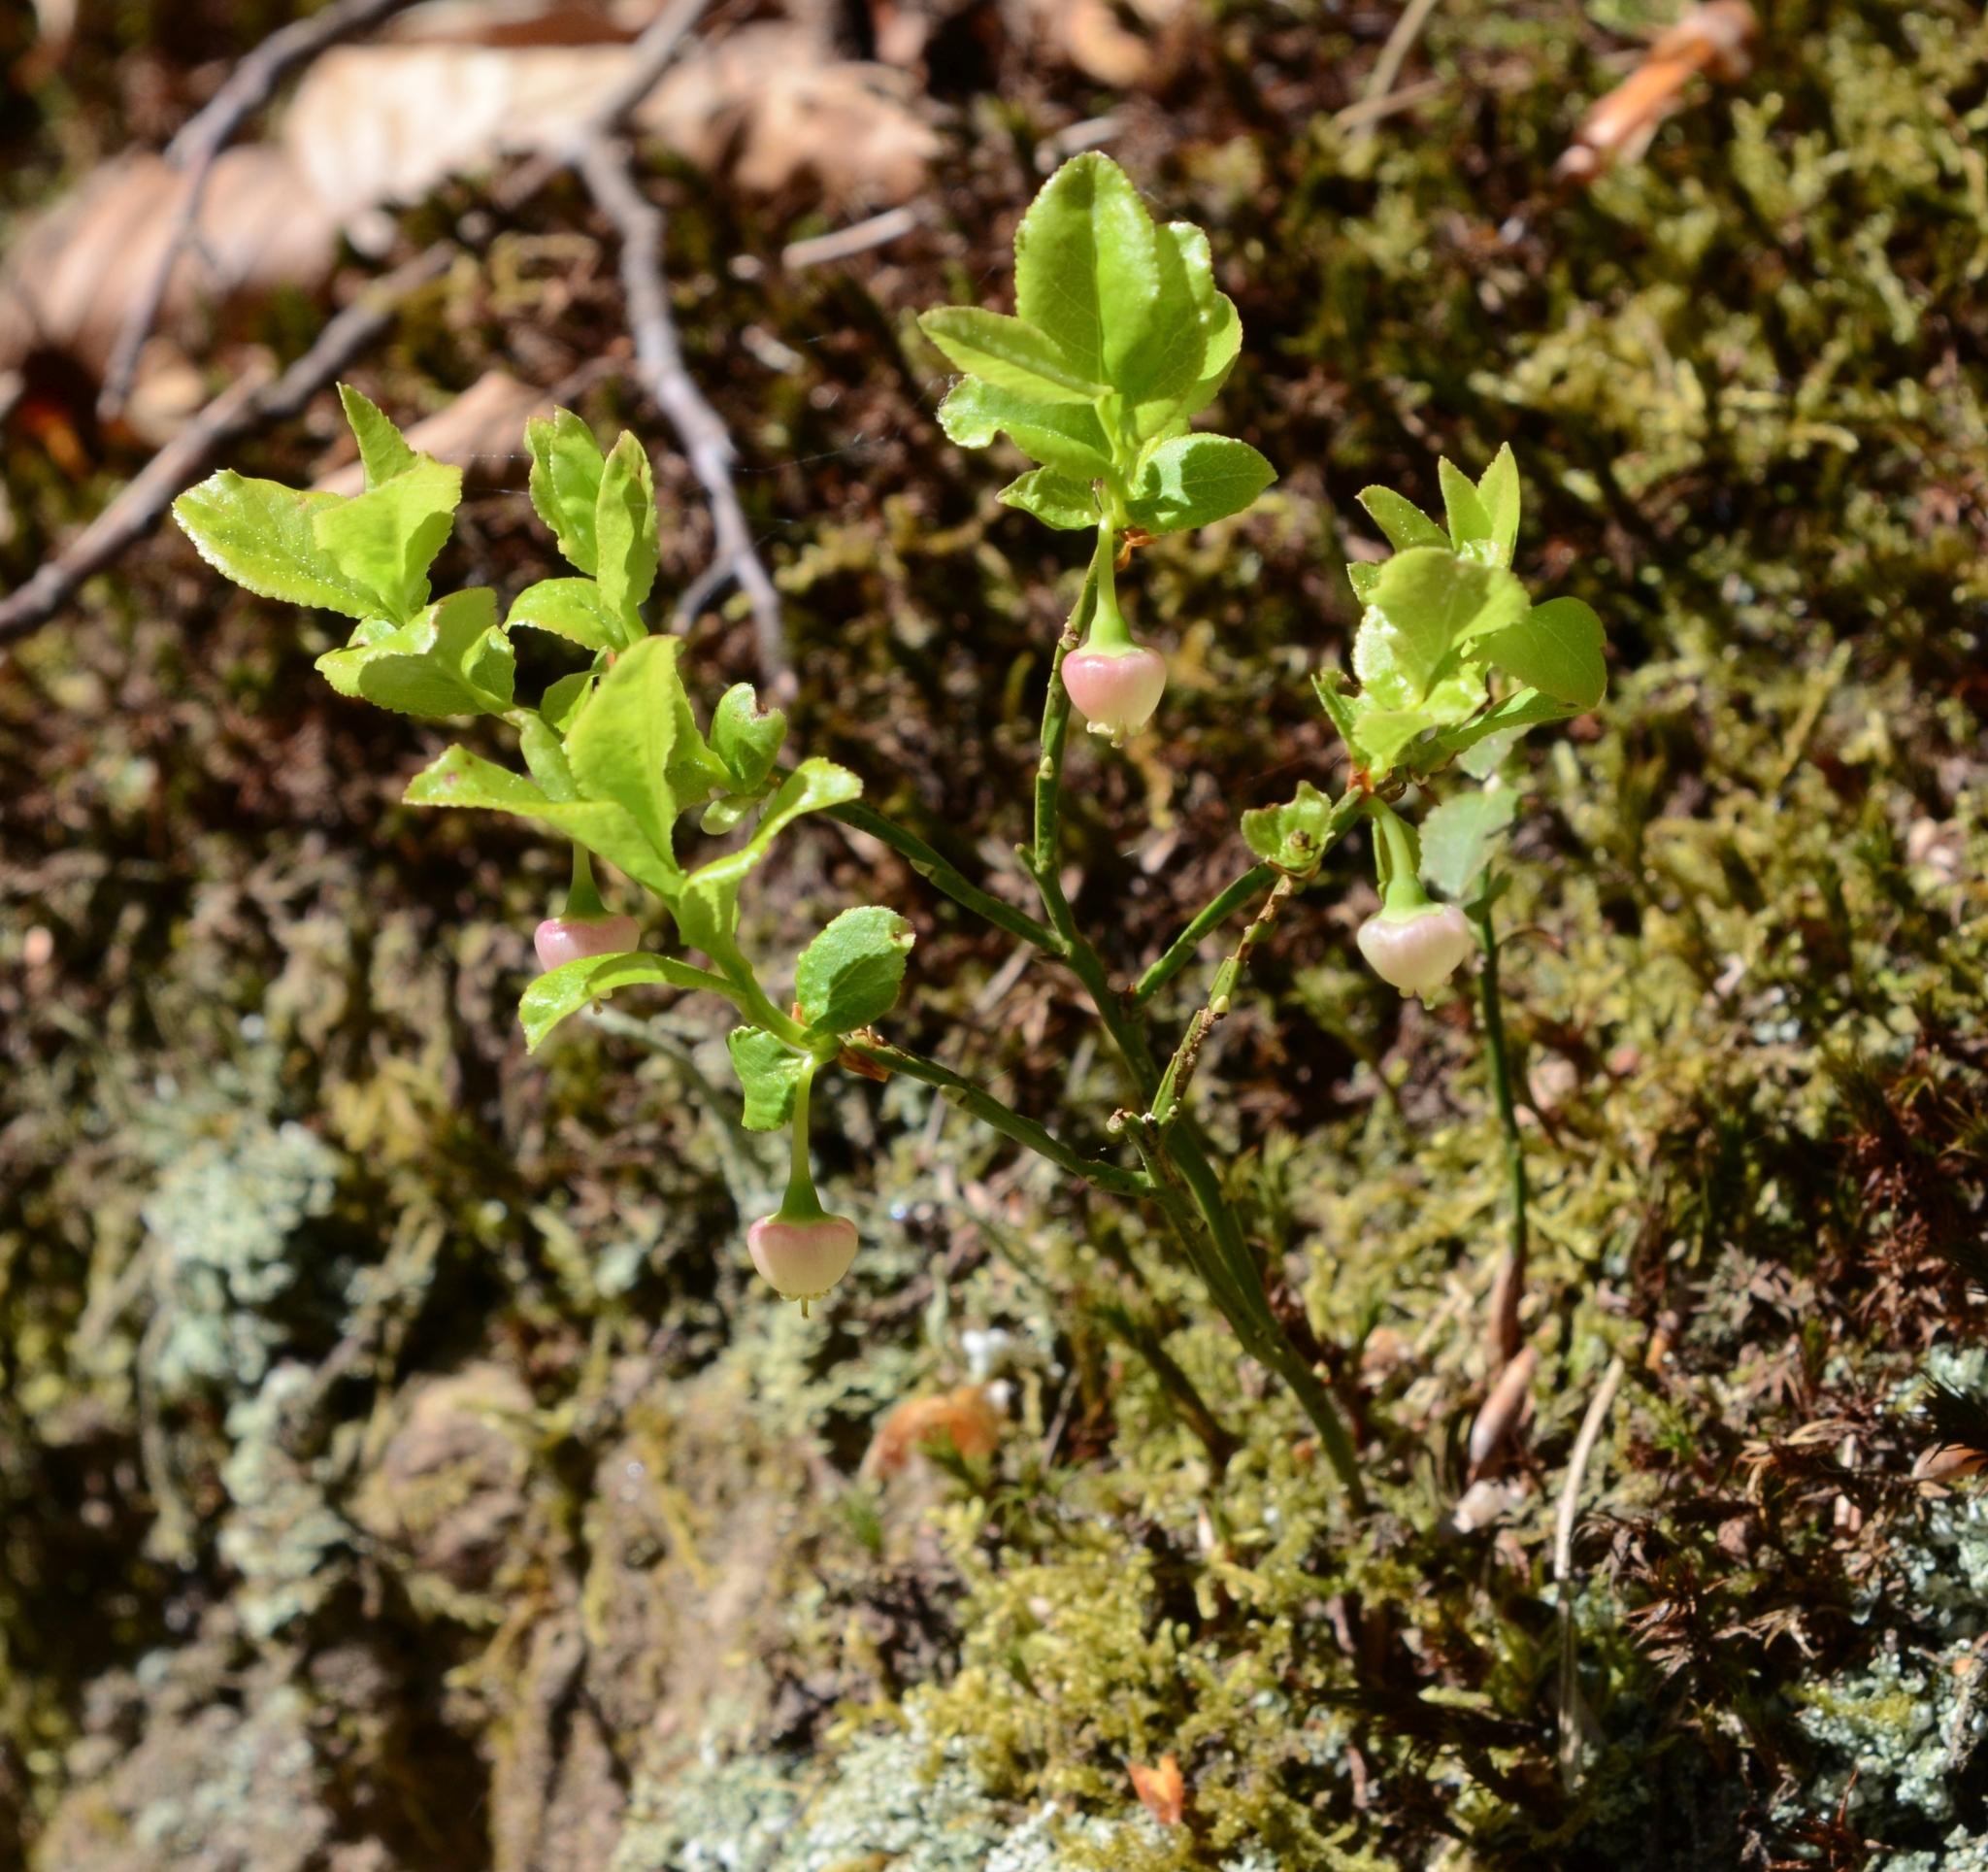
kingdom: Plantae
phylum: Tracheophyta
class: Magnoliopsida
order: Ericales
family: Ericaceae
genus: Vaccinium
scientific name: Vaccinium myrtillus
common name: Bilberry
